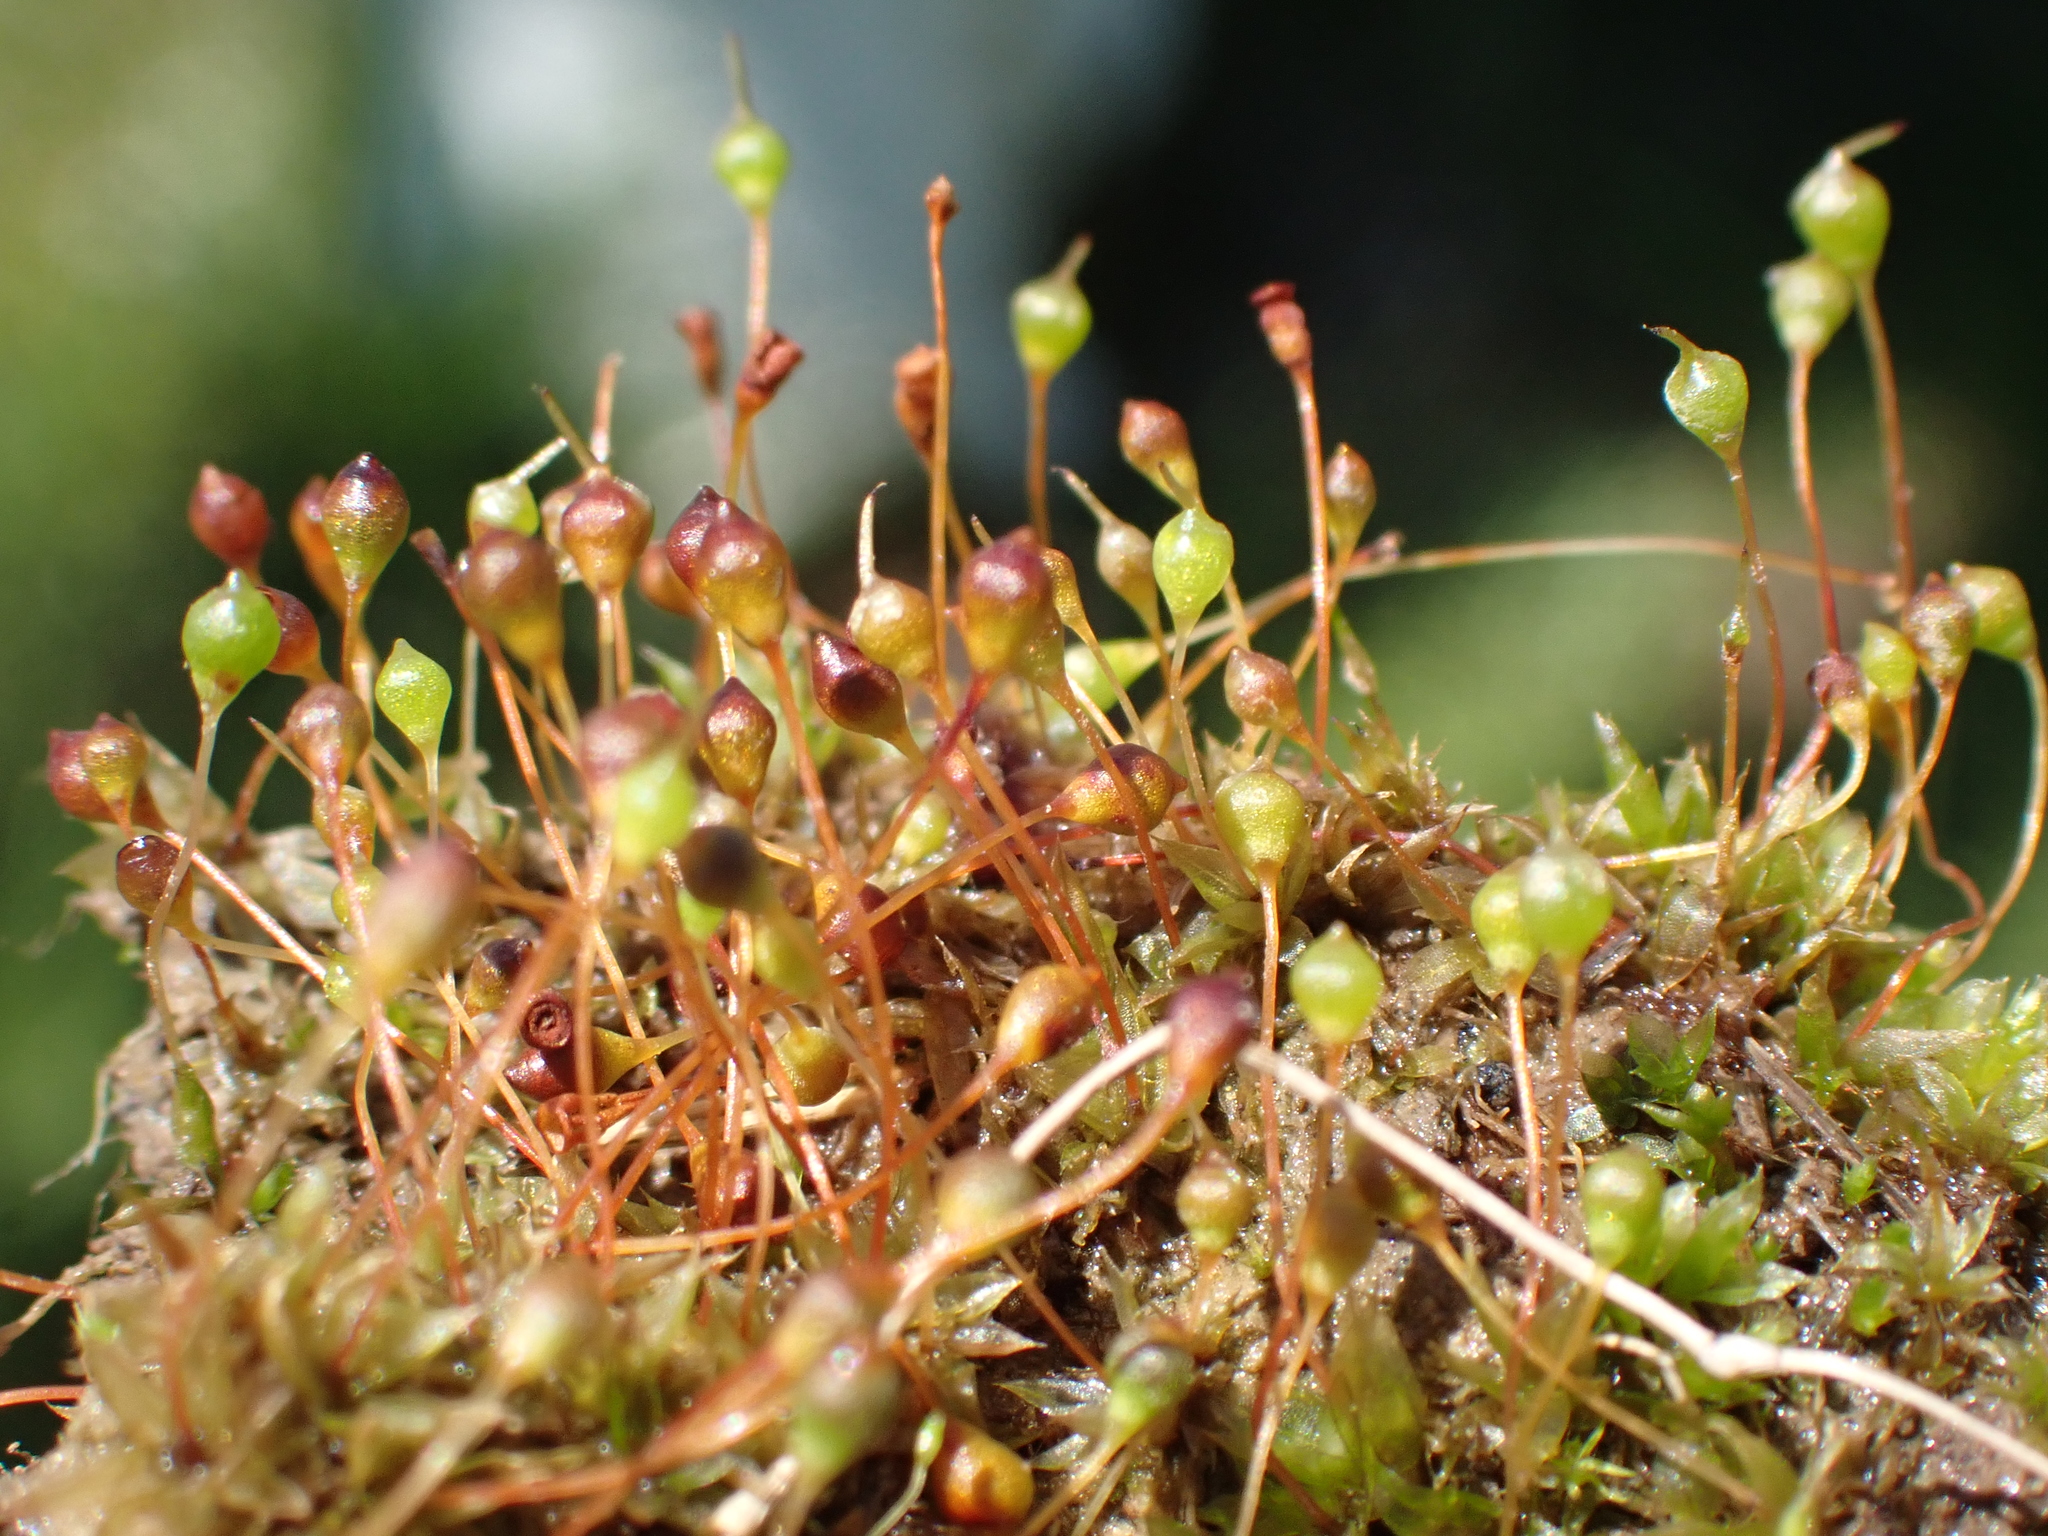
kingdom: Plantae
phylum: Bryophyta
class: Bryopsida
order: Funariales
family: Funariaceae
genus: Physcomitrium
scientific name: Physcomitrium pyriforme
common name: Common bladder-moss
